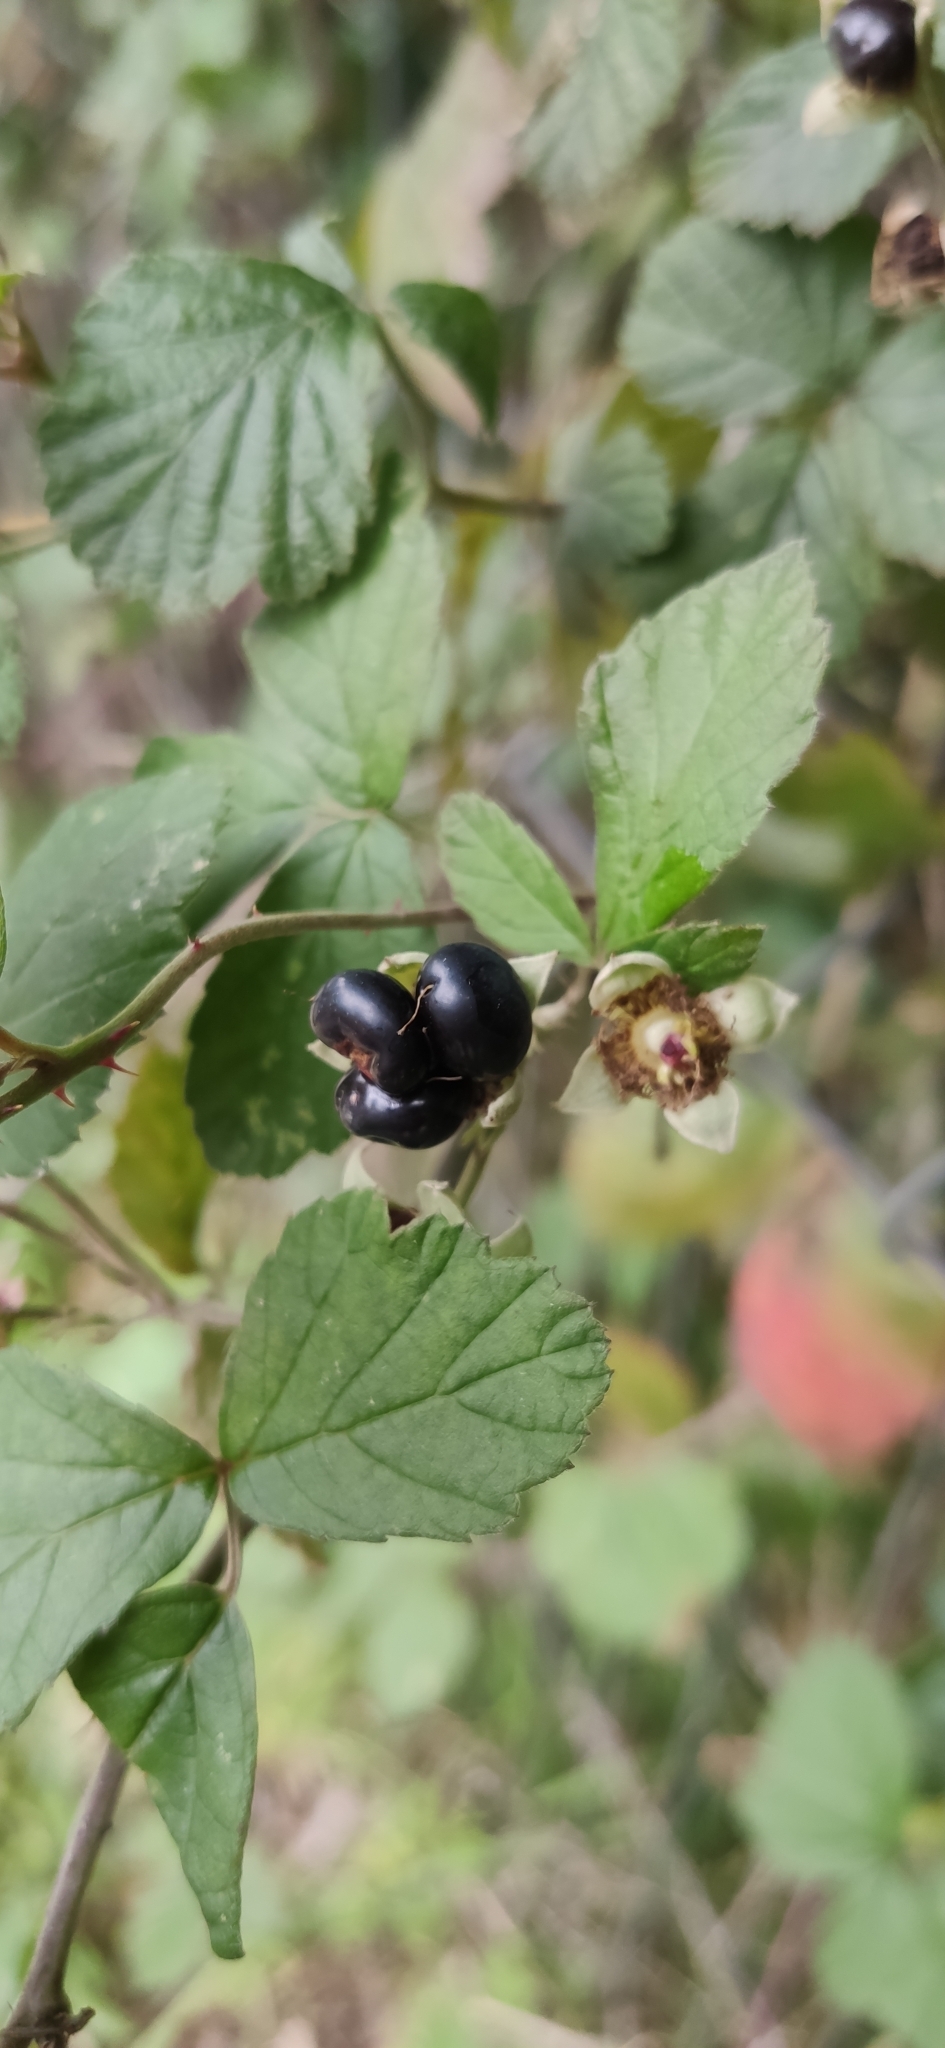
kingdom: Plantae
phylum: Tracheophyta
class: Magnoliopsida
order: Rosales
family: Rosaceae
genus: Rubus
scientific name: Rubus caesius
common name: Dewberry
